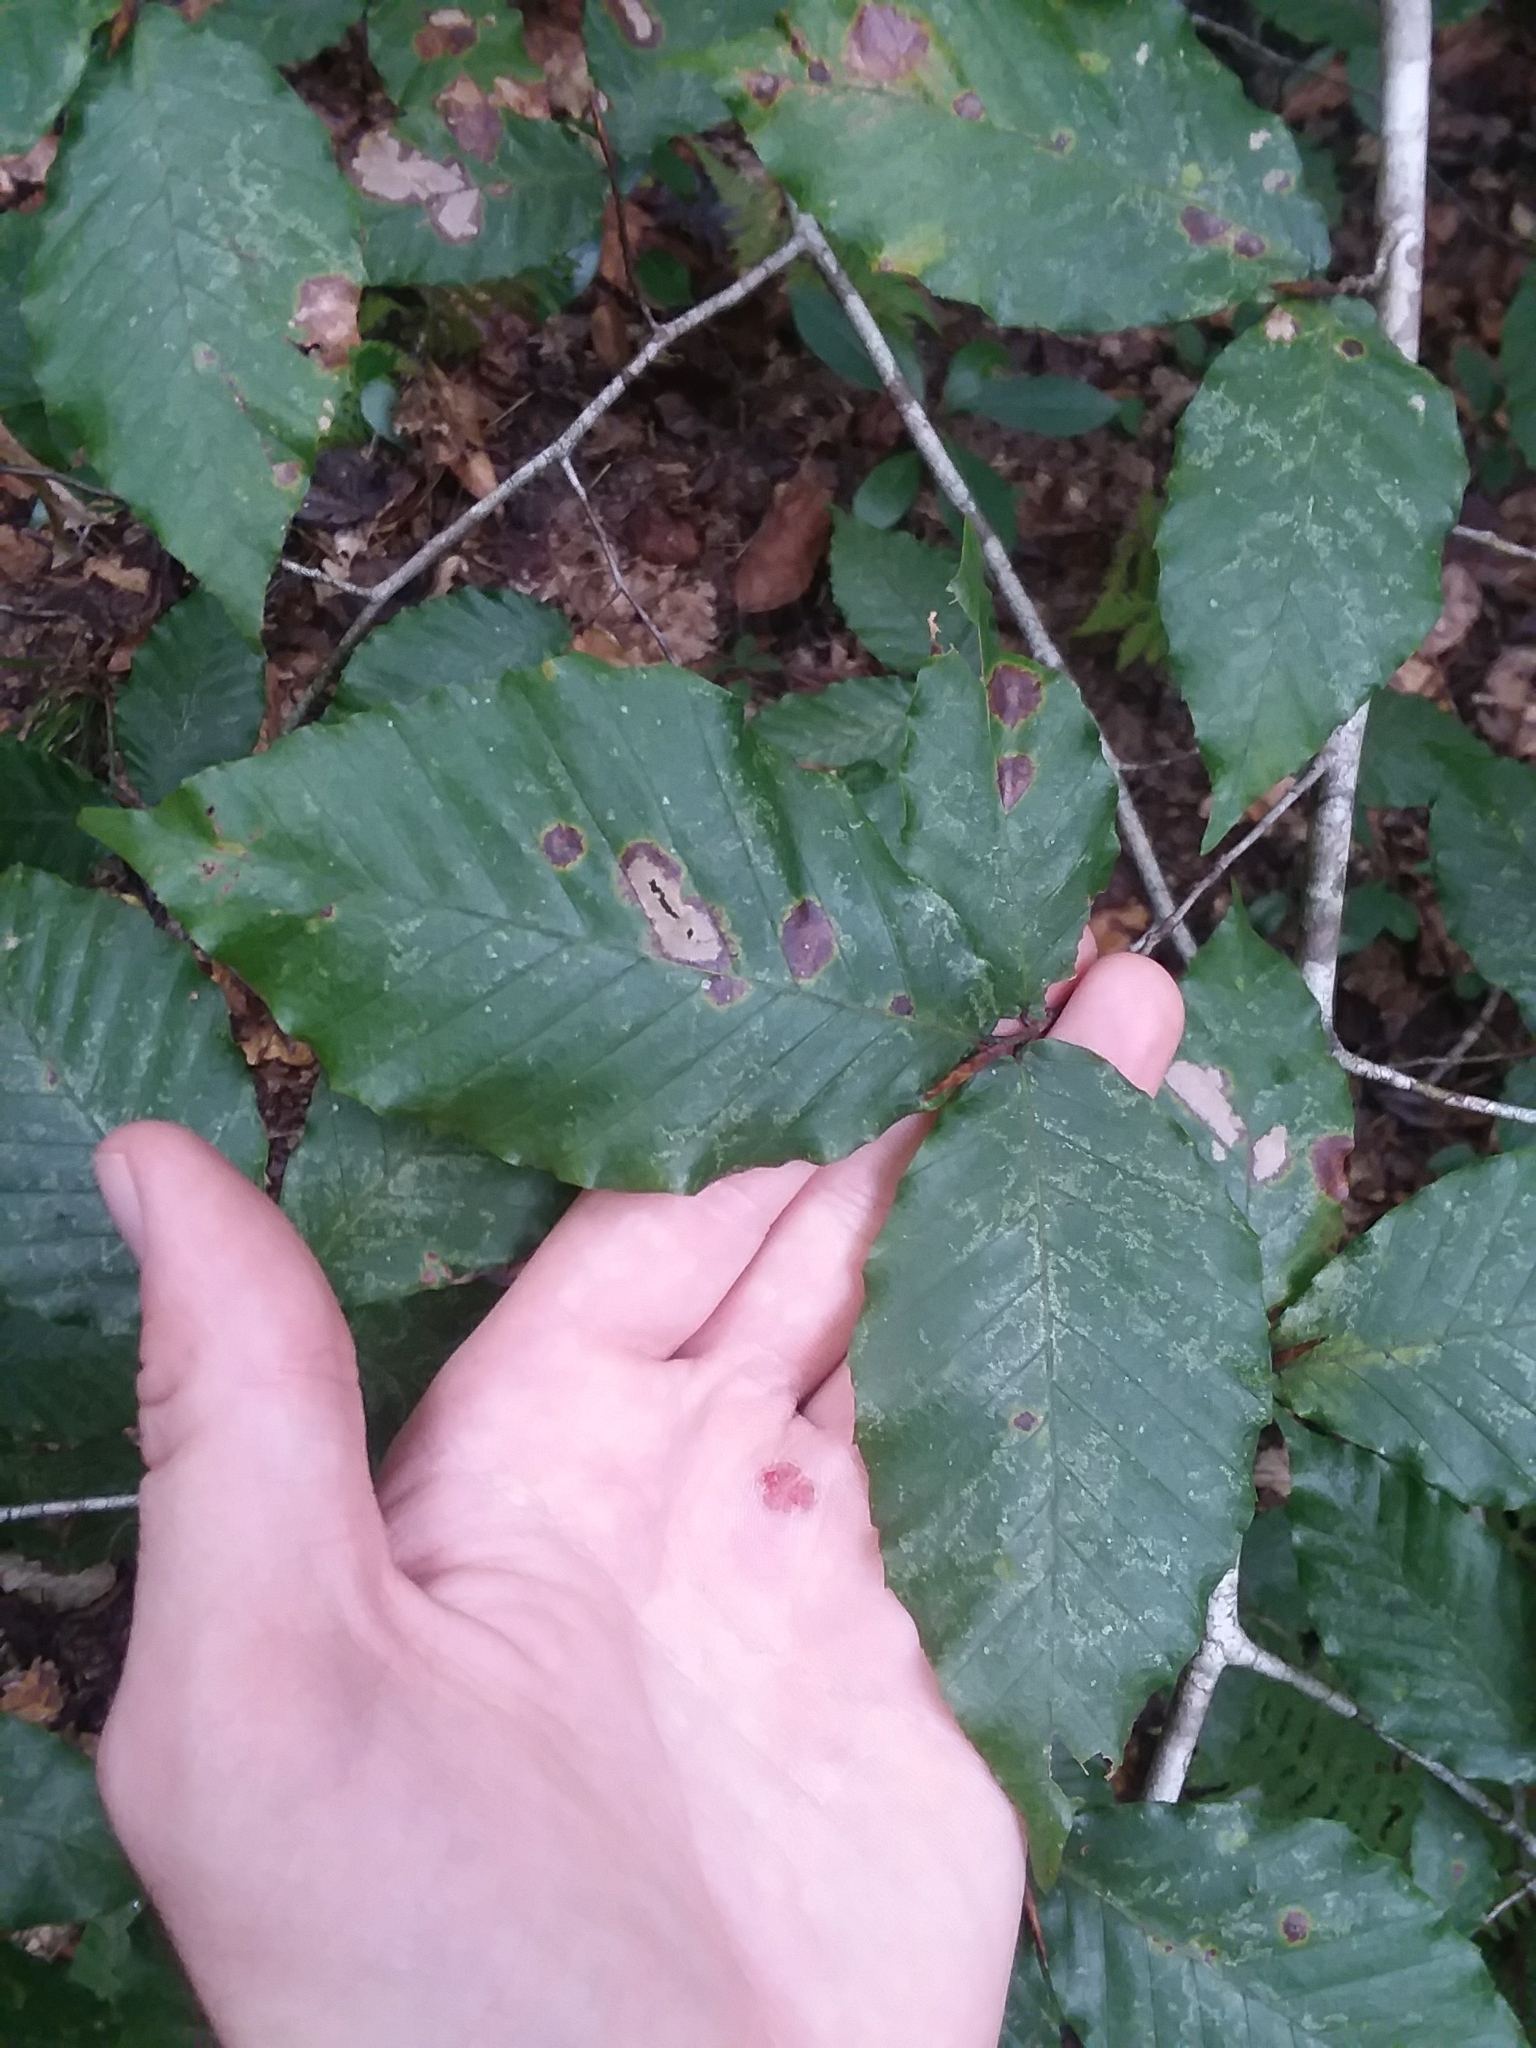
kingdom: Plantae
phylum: Tracheophyta
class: Magnoliopsida
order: Fagales
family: Fagaceae
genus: Fagus
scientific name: Fagus grandifolia
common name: American beech
